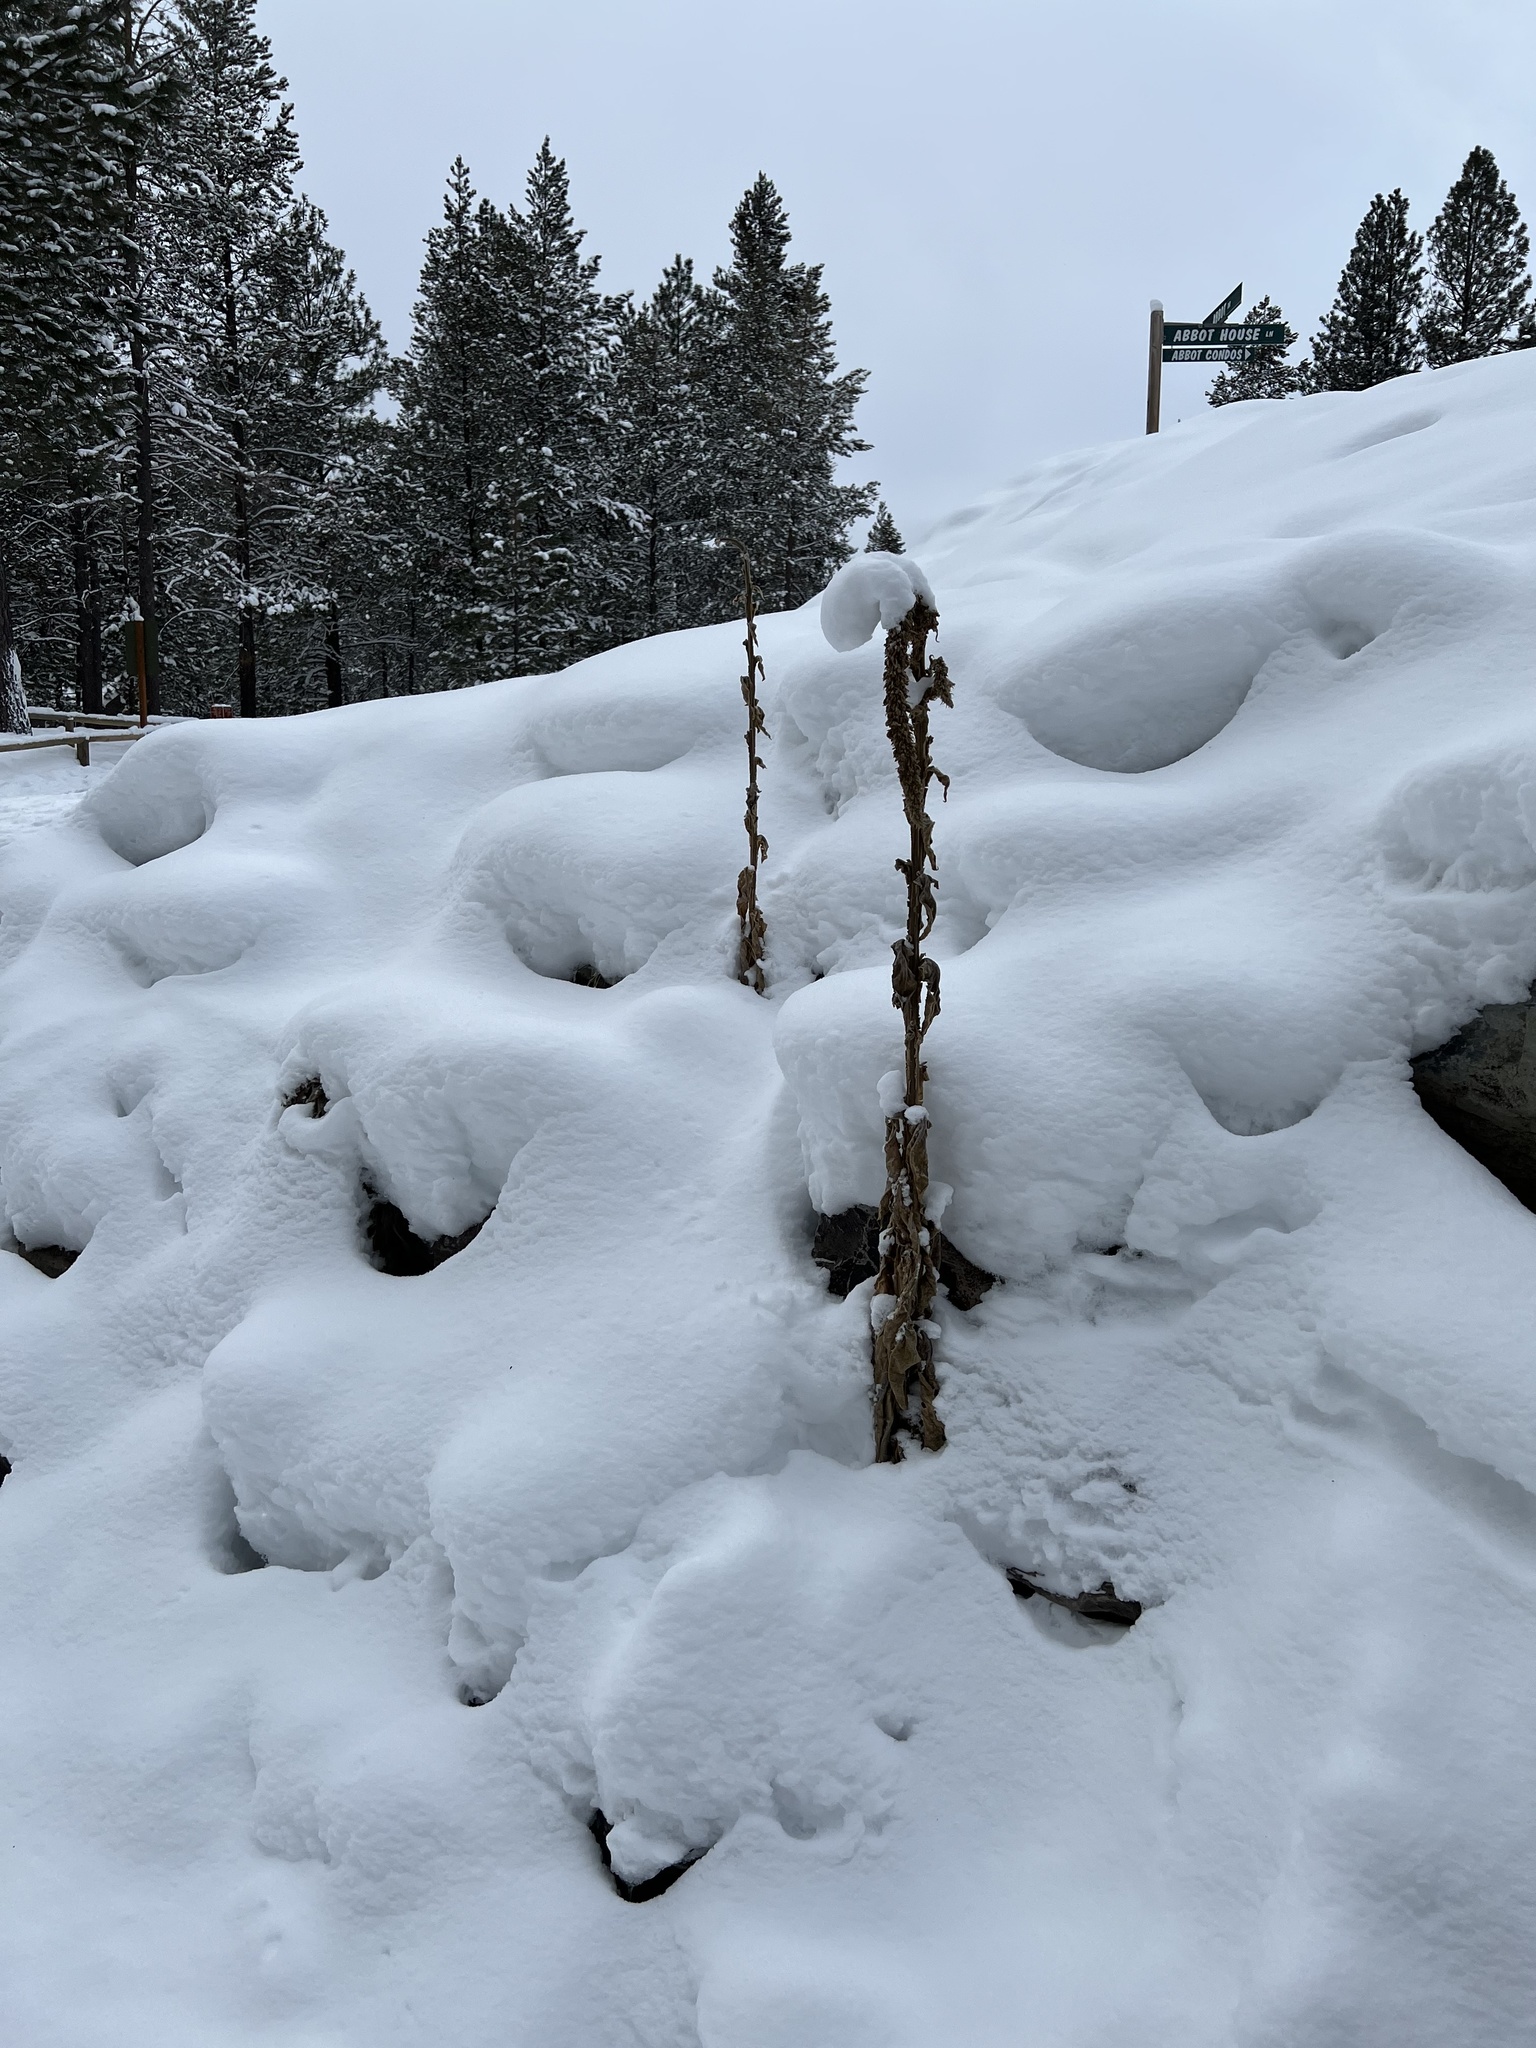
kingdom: Plantae
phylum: Tracheophyta
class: Magnoliopsida
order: Lamiales
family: Scrophulariaceae
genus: Verbascum
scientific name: Verbascum thapsus
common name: Common mullein
